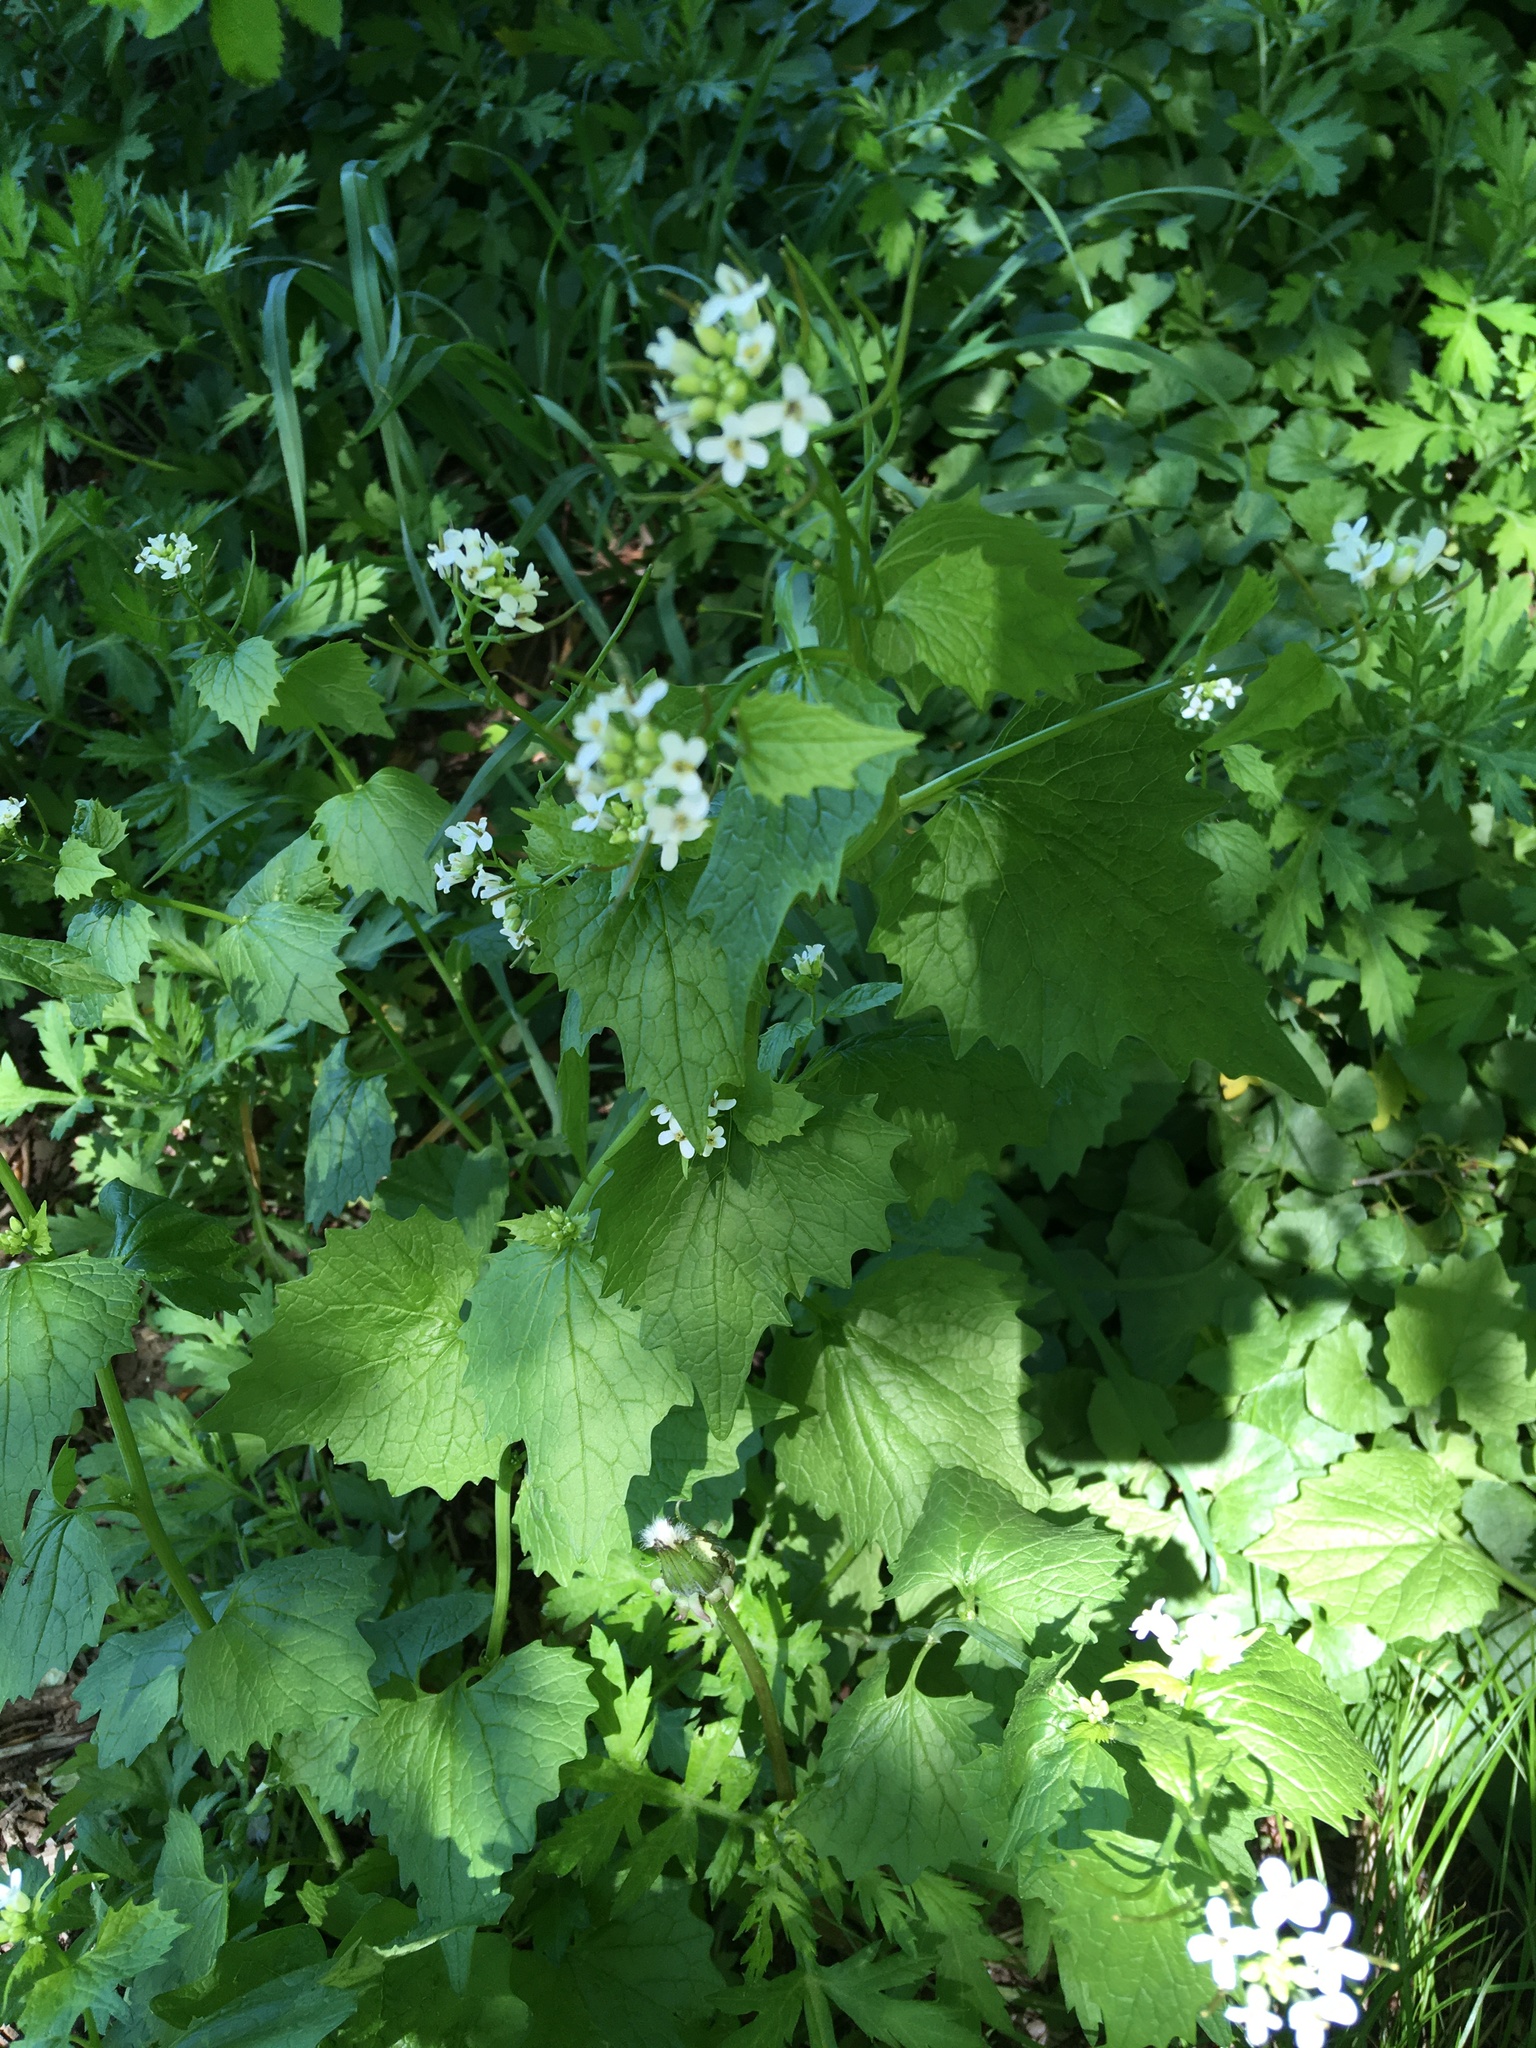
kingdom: Plantae
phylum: Tracheophyta
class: Magnoliopsida
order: Brassicales
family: Brassicaceae
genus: Alliaria
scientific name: Alliaria petiolata
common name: Garlic mustard
